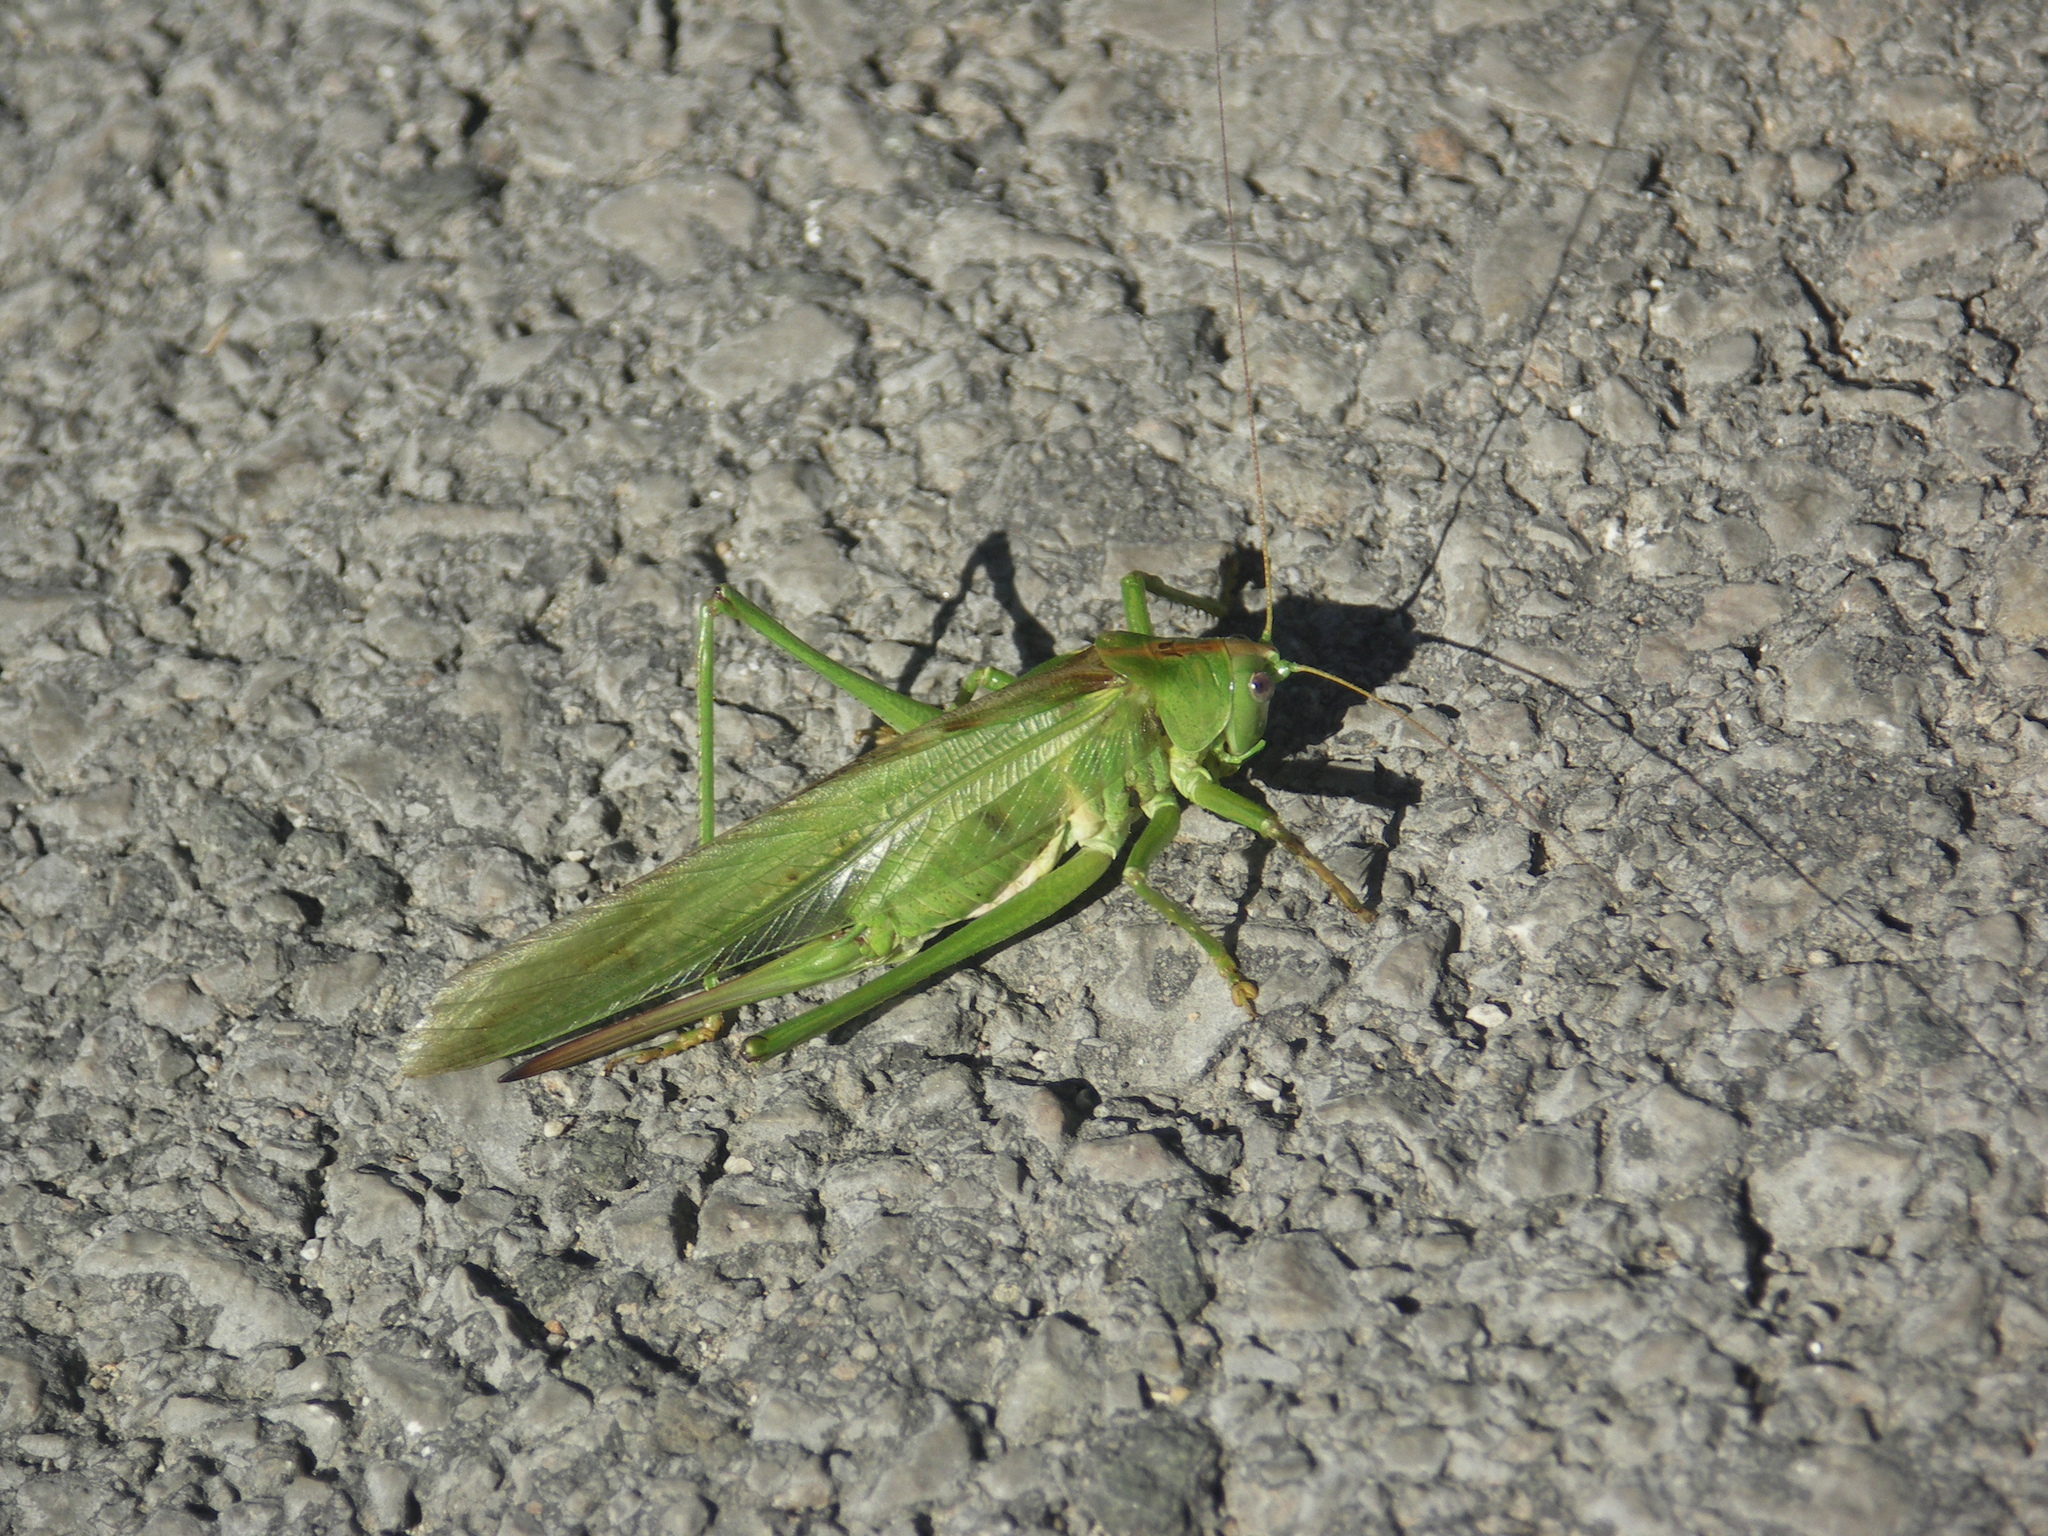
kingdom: Animalia
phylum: Arthropoda
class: Insecta
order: Orthoptera
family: Tettigoniidae
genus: Tettigonia
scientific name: Tettigonia viridissima
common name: Great green bush-cricket
